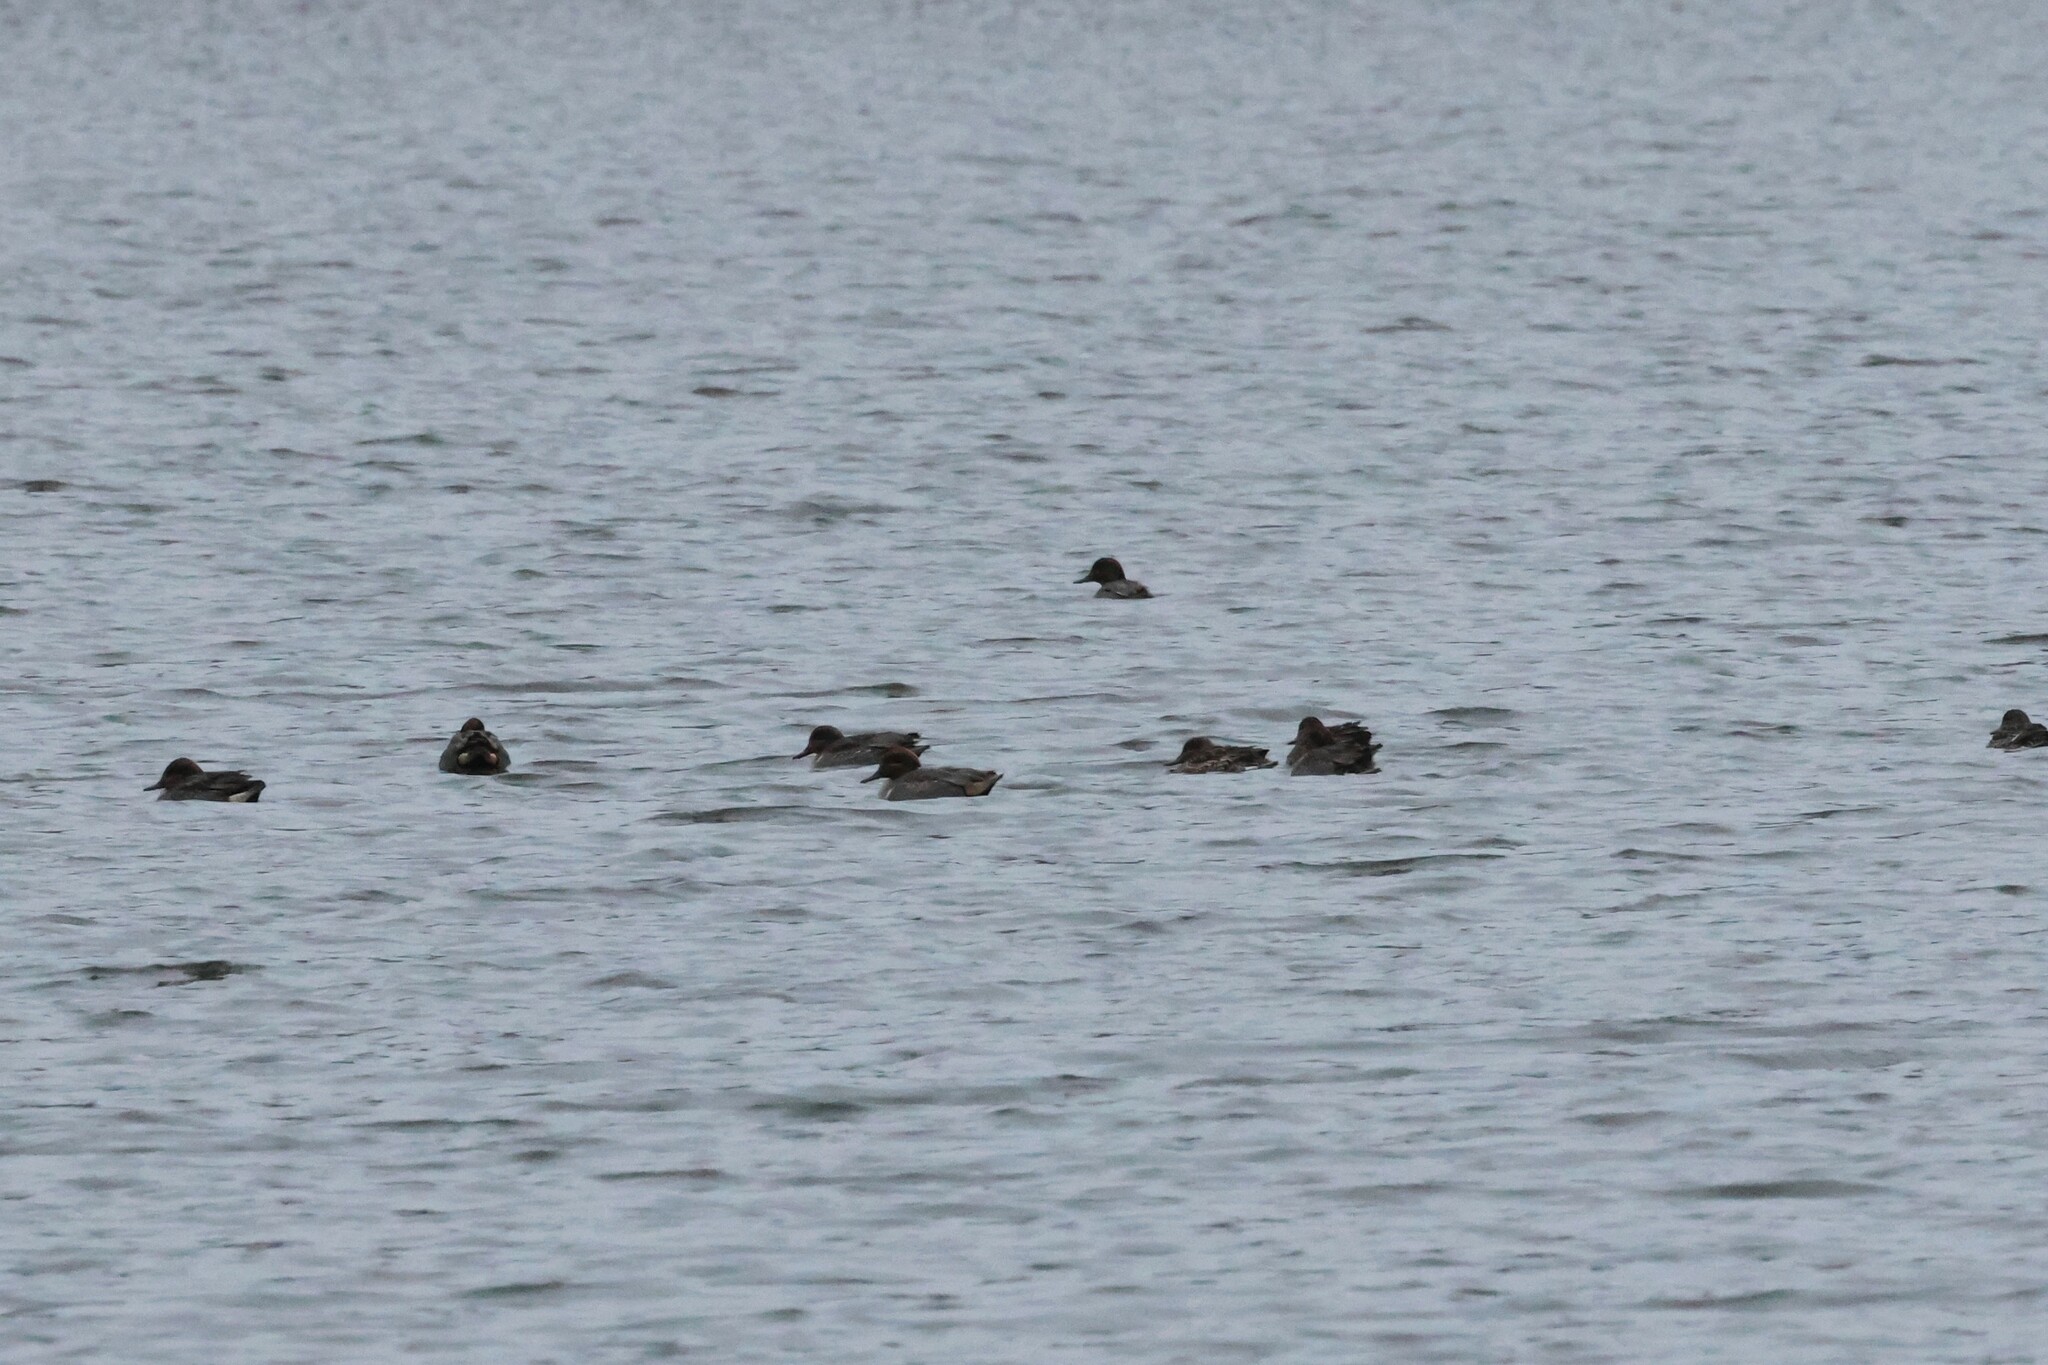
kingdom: Animalia
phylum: Chordata
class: Aves
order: Anseriformes
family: Anatidae
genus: Anas
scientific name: Anas crecca
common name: Eurasian teal
